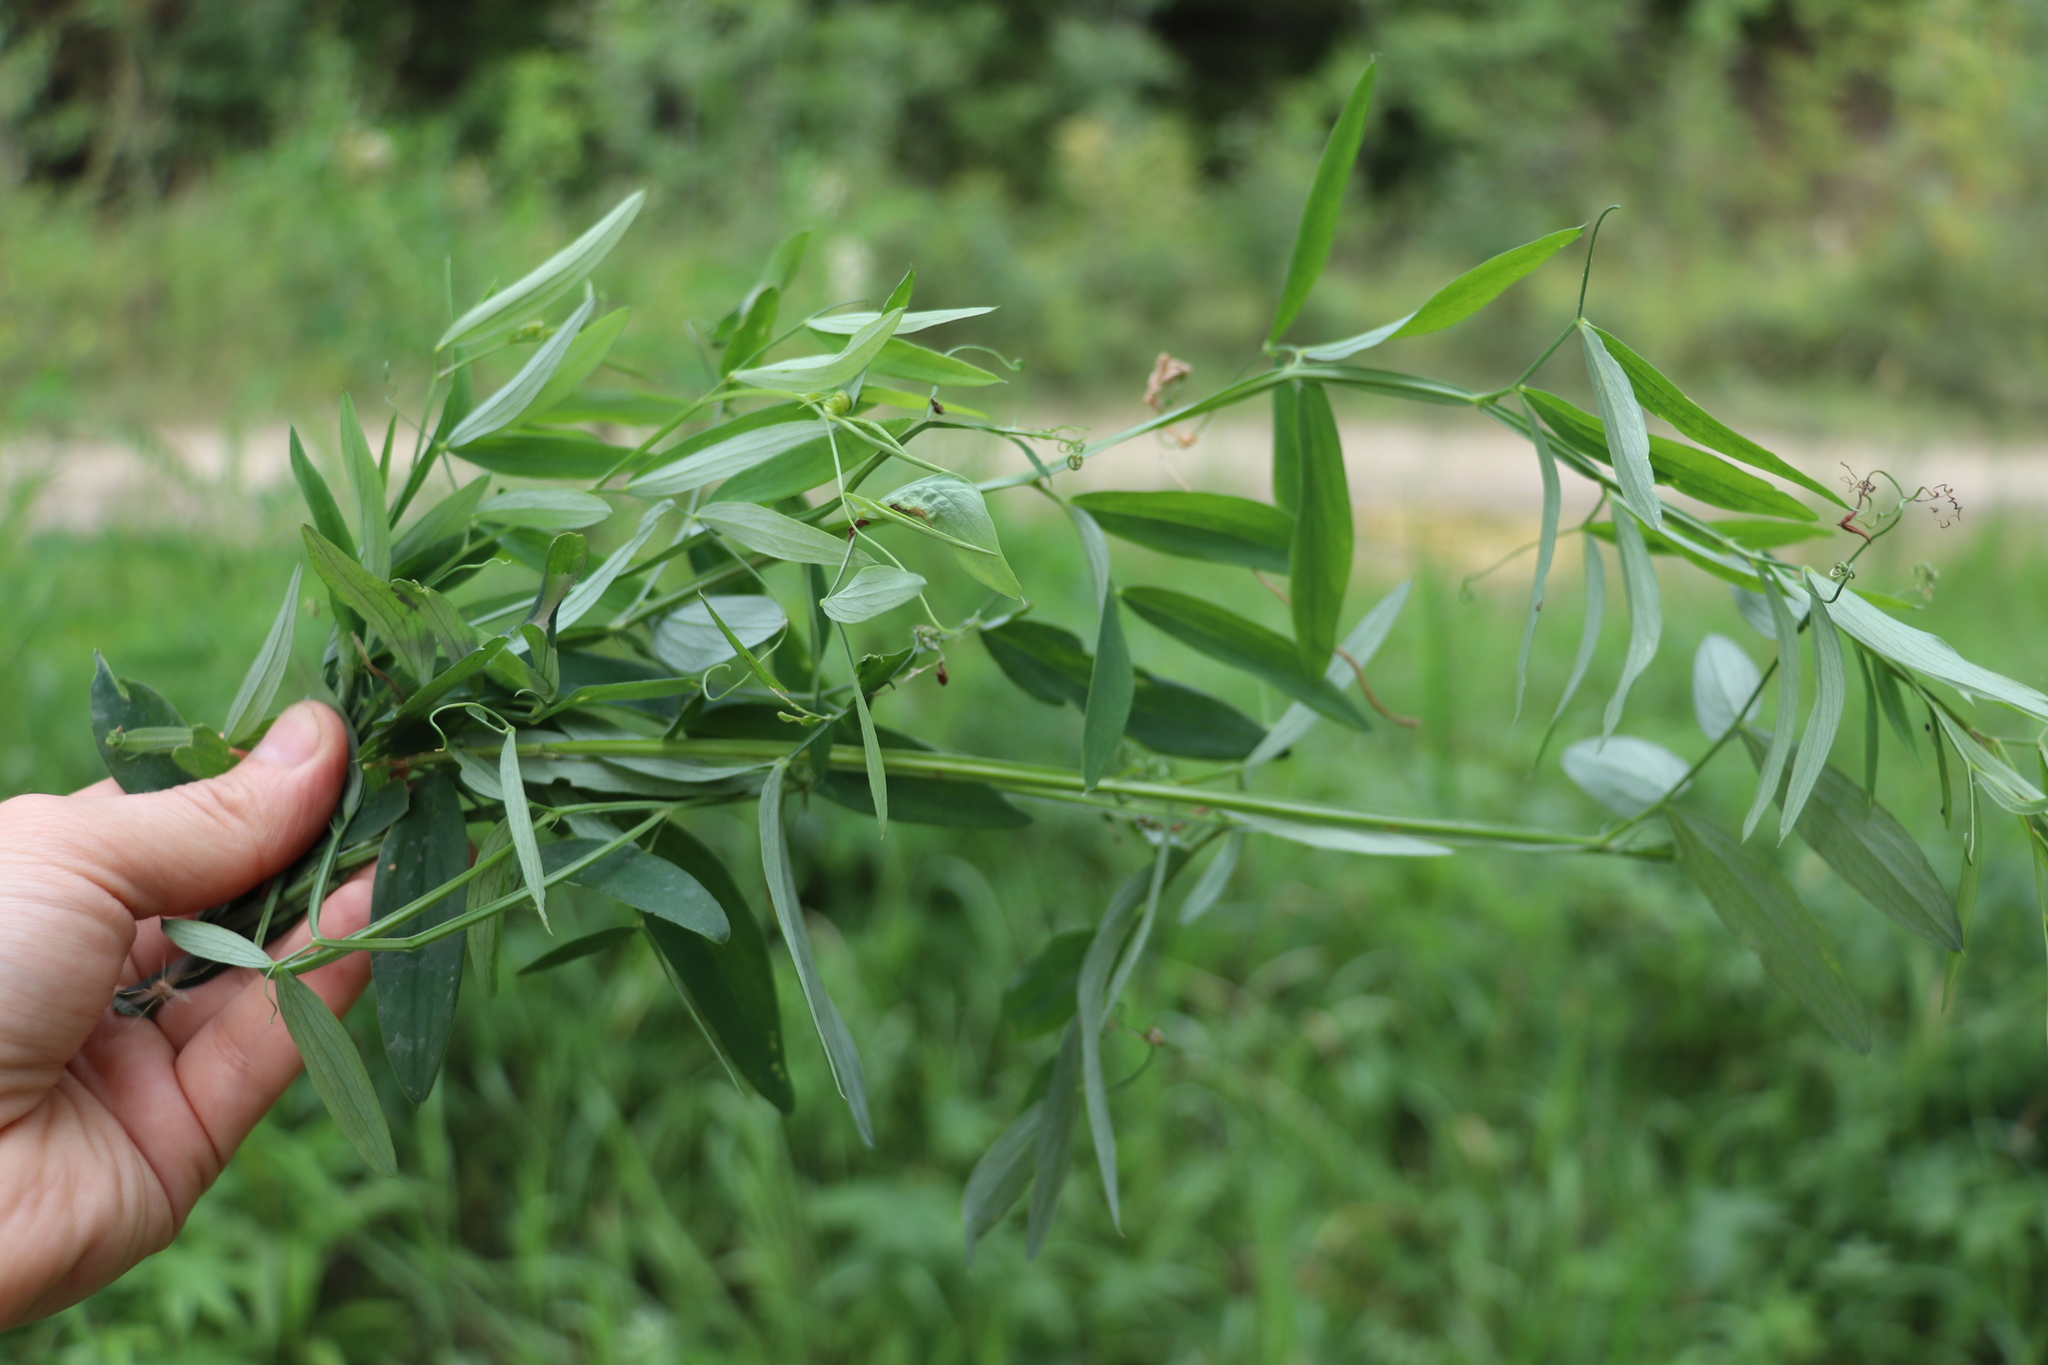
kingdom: Plantae
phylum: Tracheophyta
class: Magnoliopsida
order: Fabales
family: Fabaceae
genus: Lathyrus
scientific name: Lathyrus palustris
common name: Marsh pea
